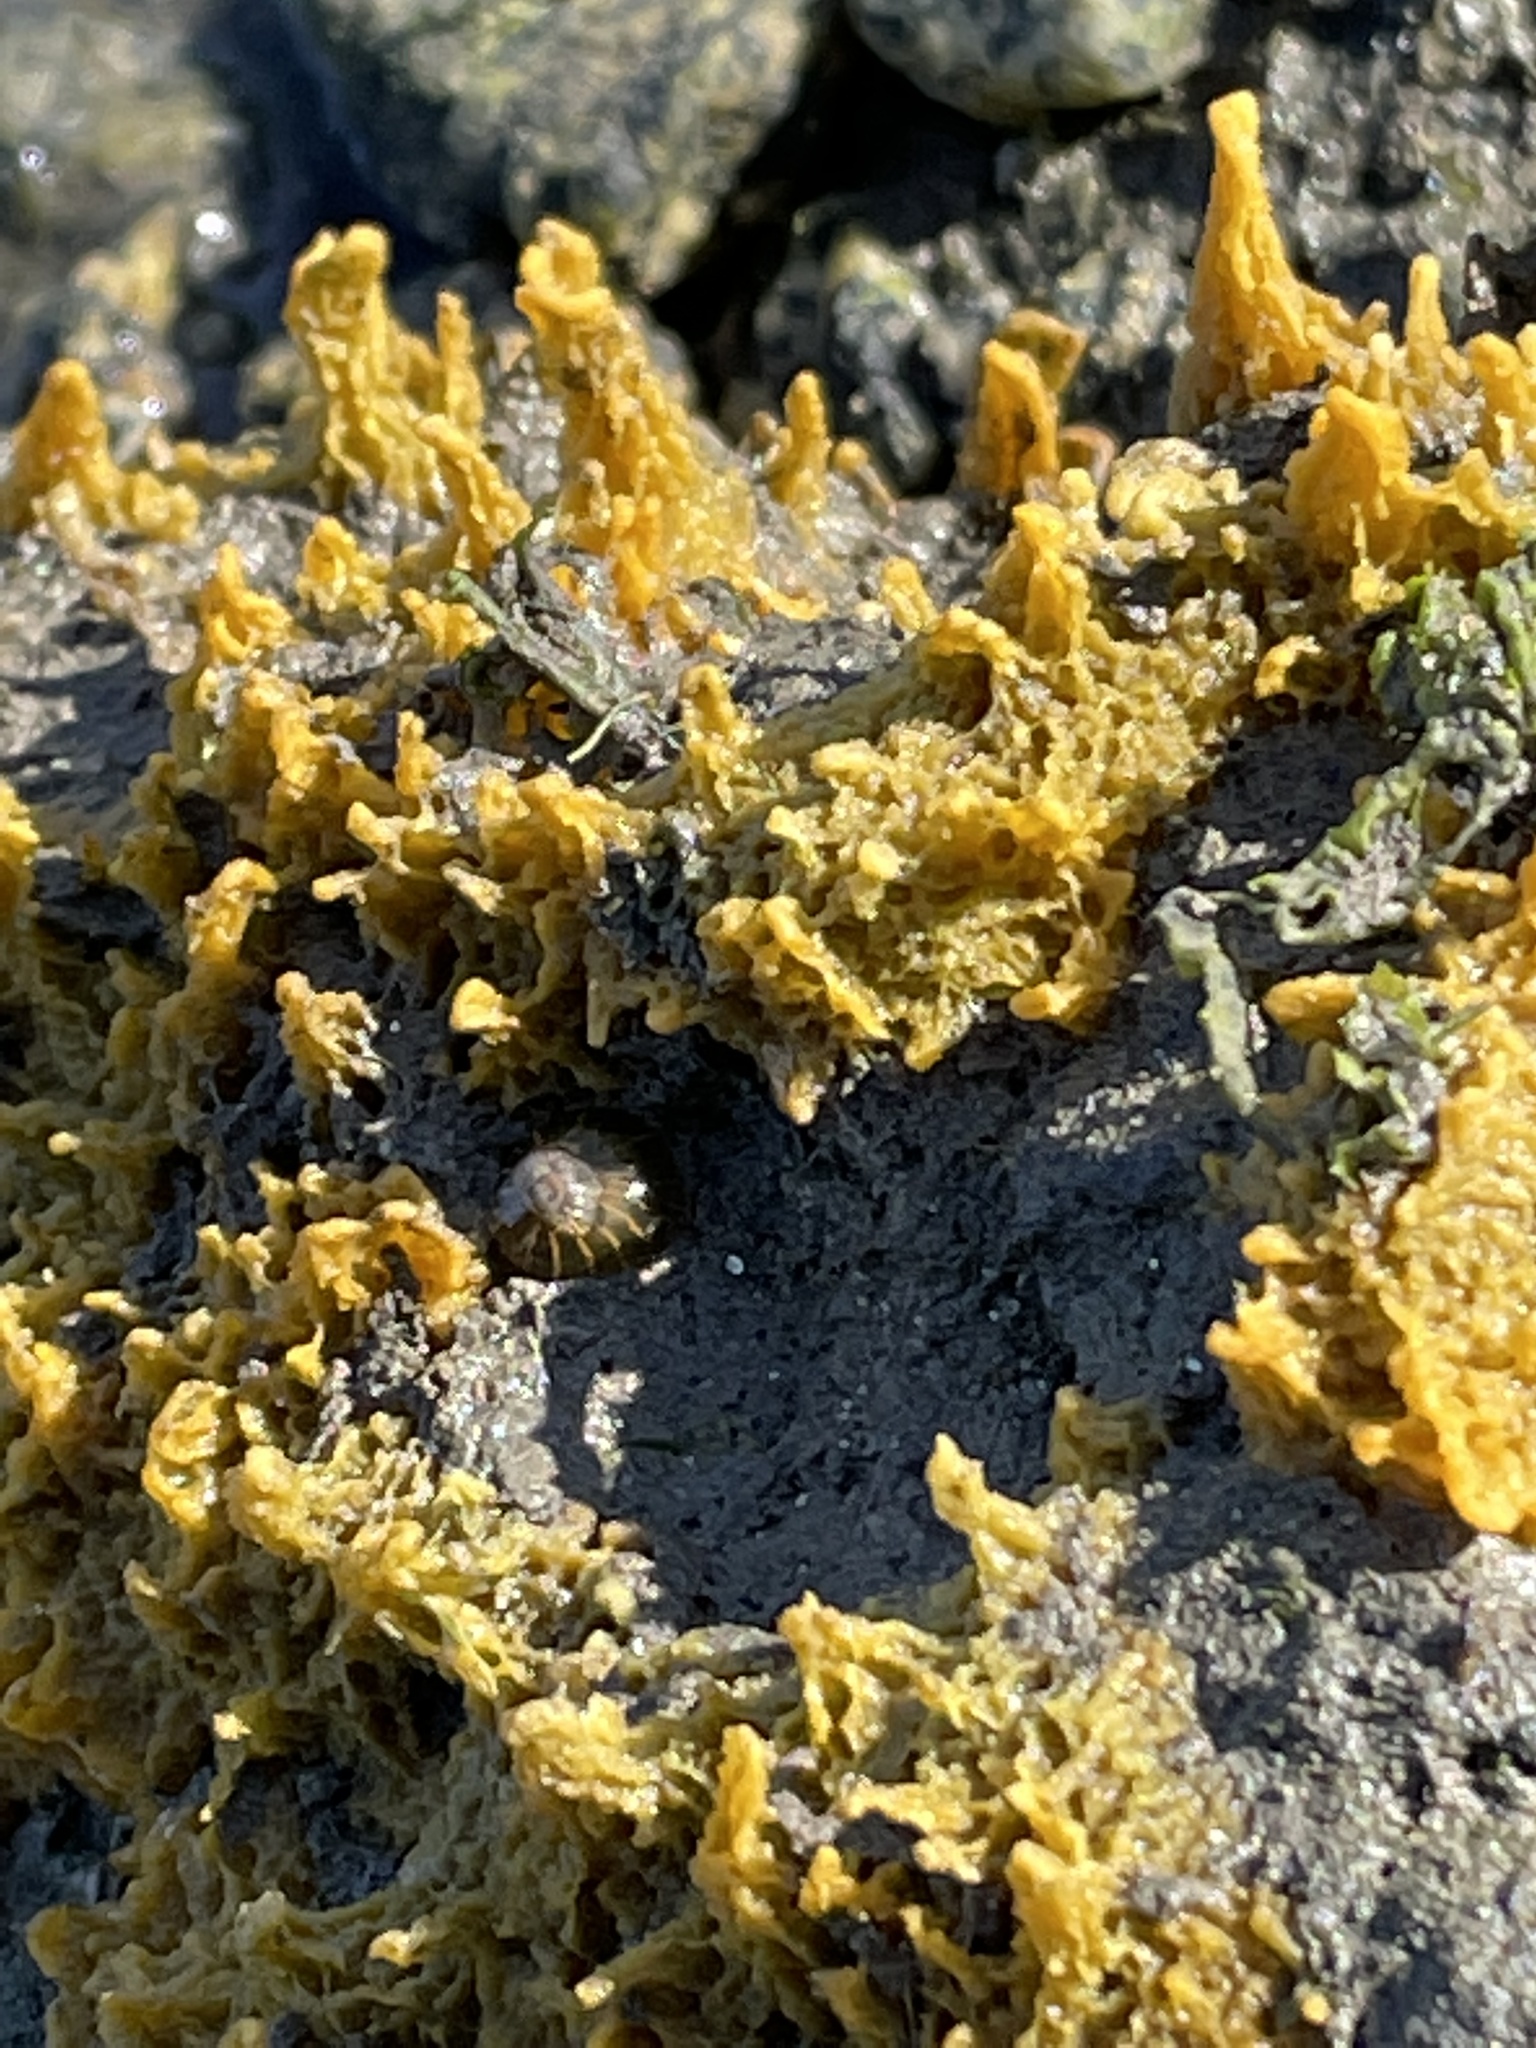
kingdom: Animalia
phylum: Porifera
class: Demospongiae
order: Suberitida
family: Halichondriidae
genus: Hymeniacidon
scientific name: Hymeniacidon perlevis
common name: Crumb-of-bread sponge
